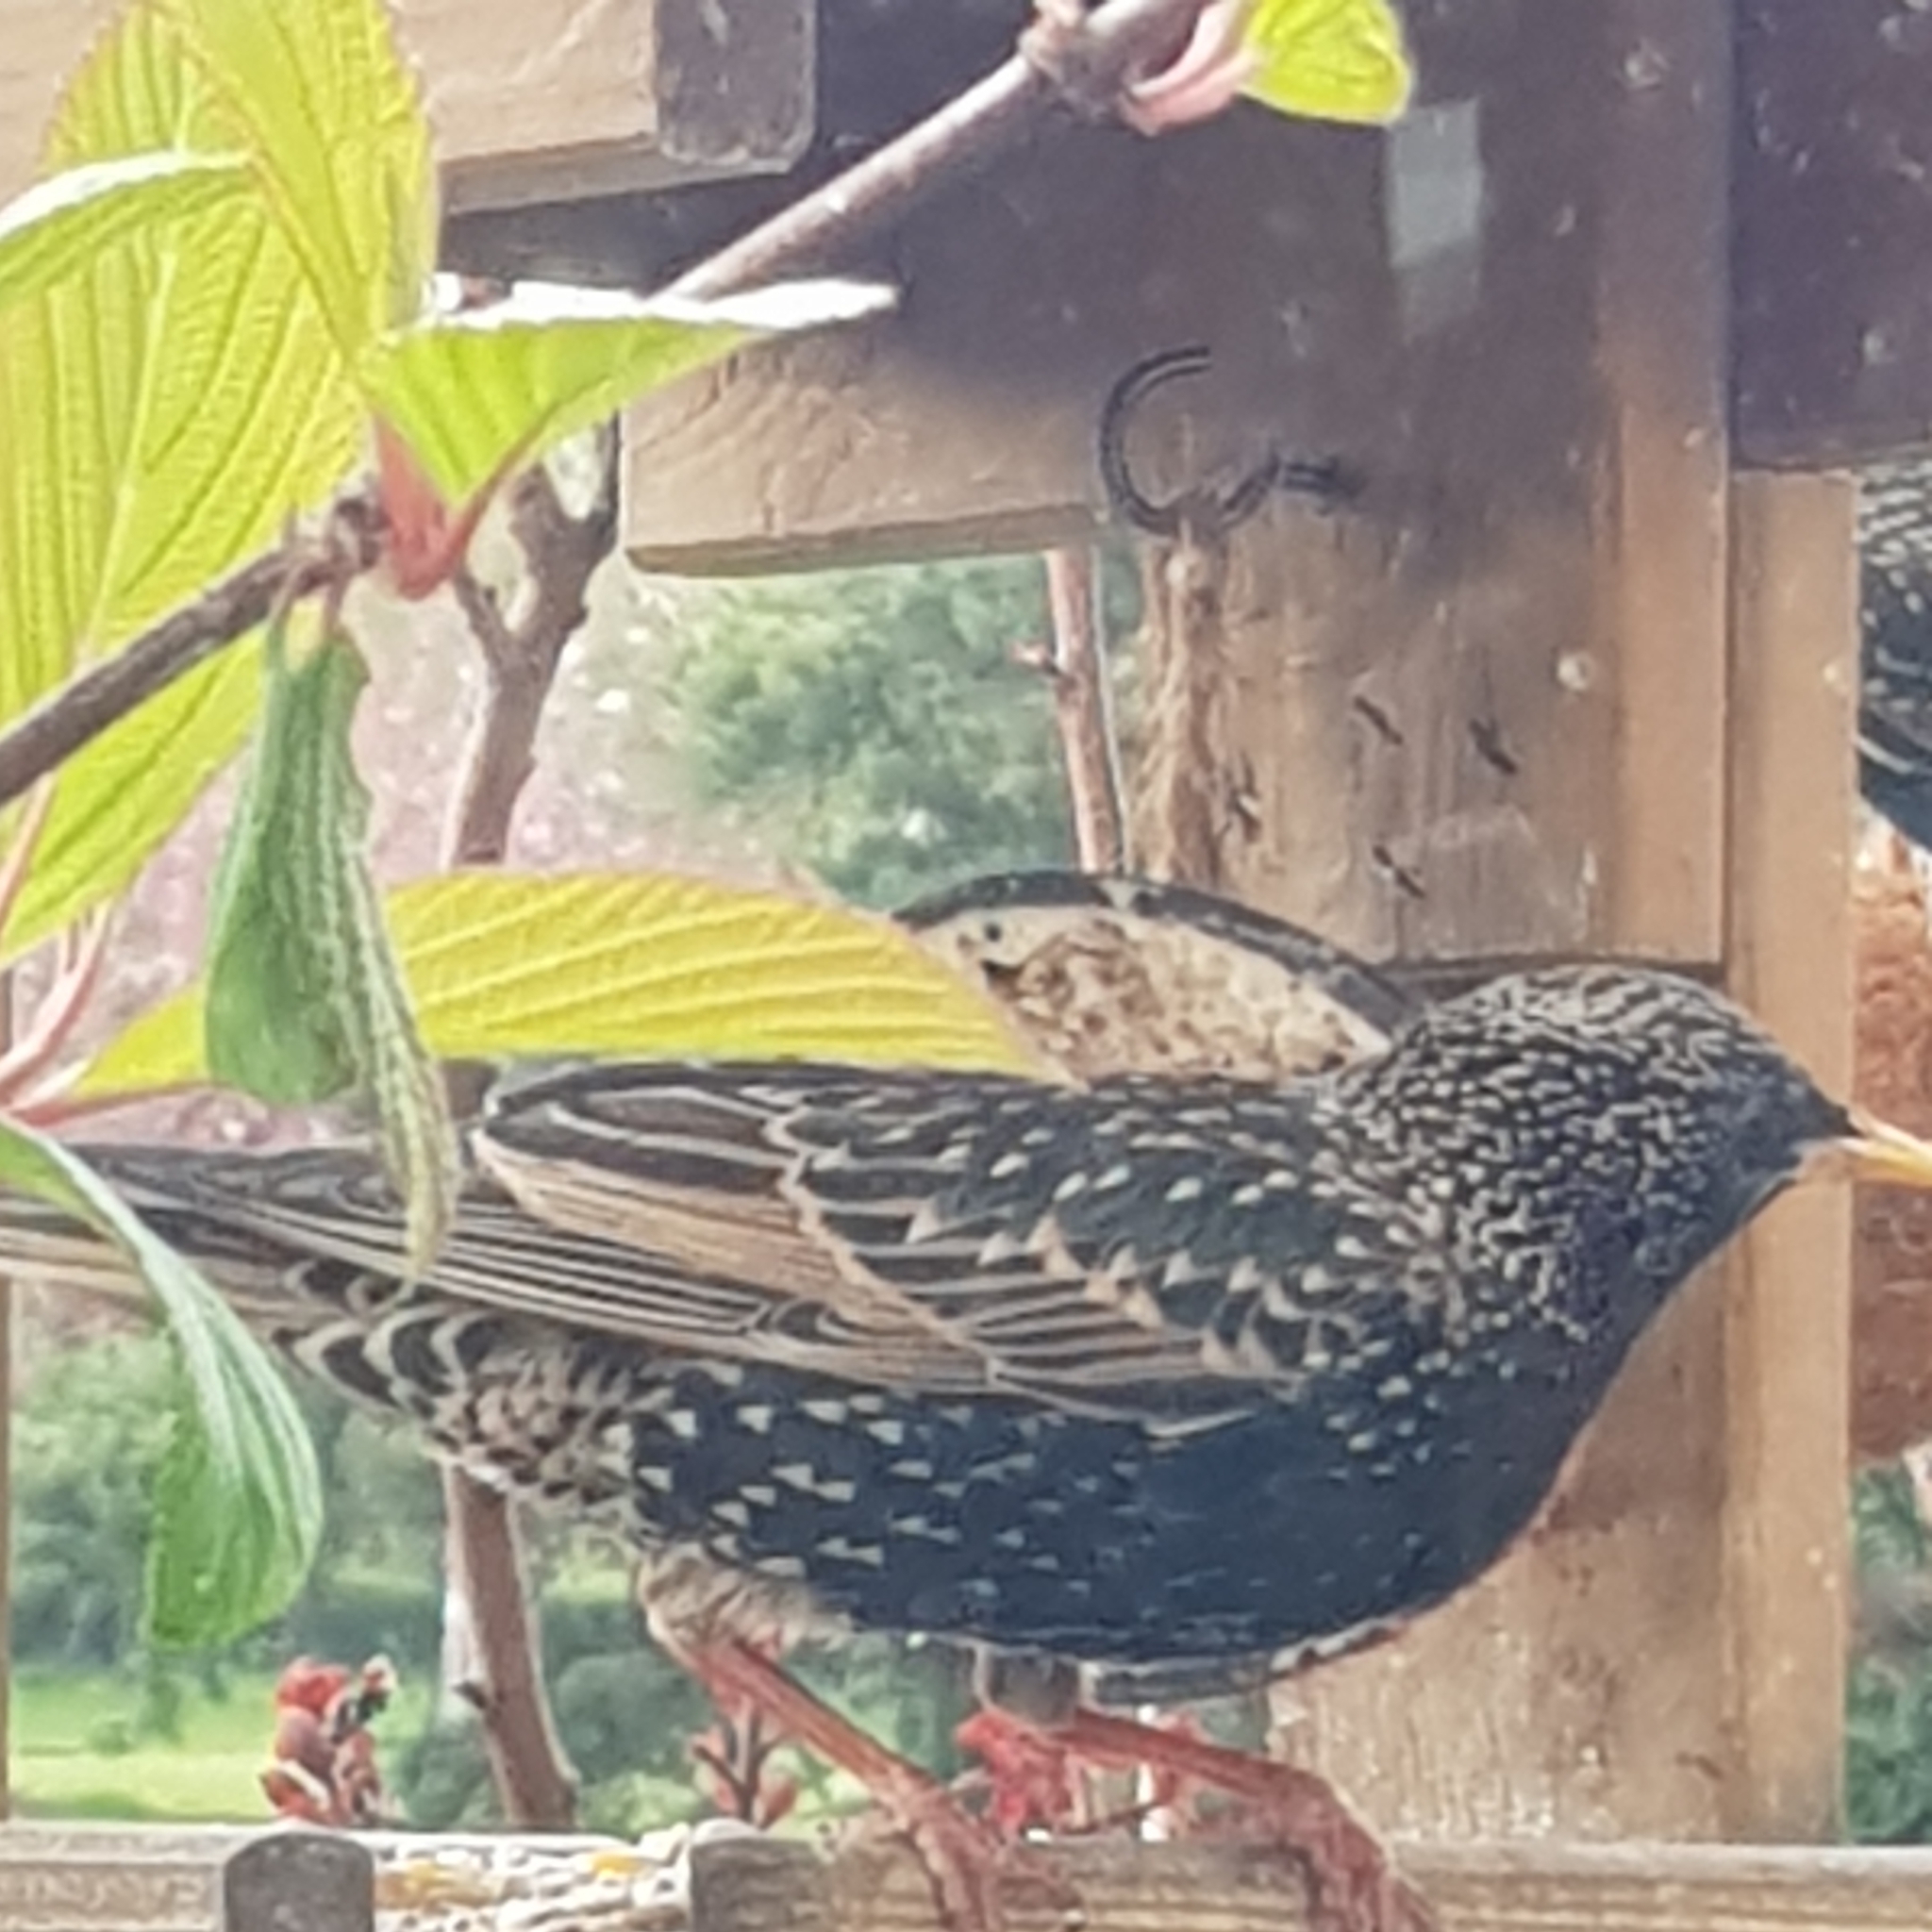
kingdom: Animalia
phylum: Chordata
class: Aves
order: Passeriformes
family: Sturnidae
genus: Sturnus
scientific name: Sturnus vulgaris
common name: Common starling
